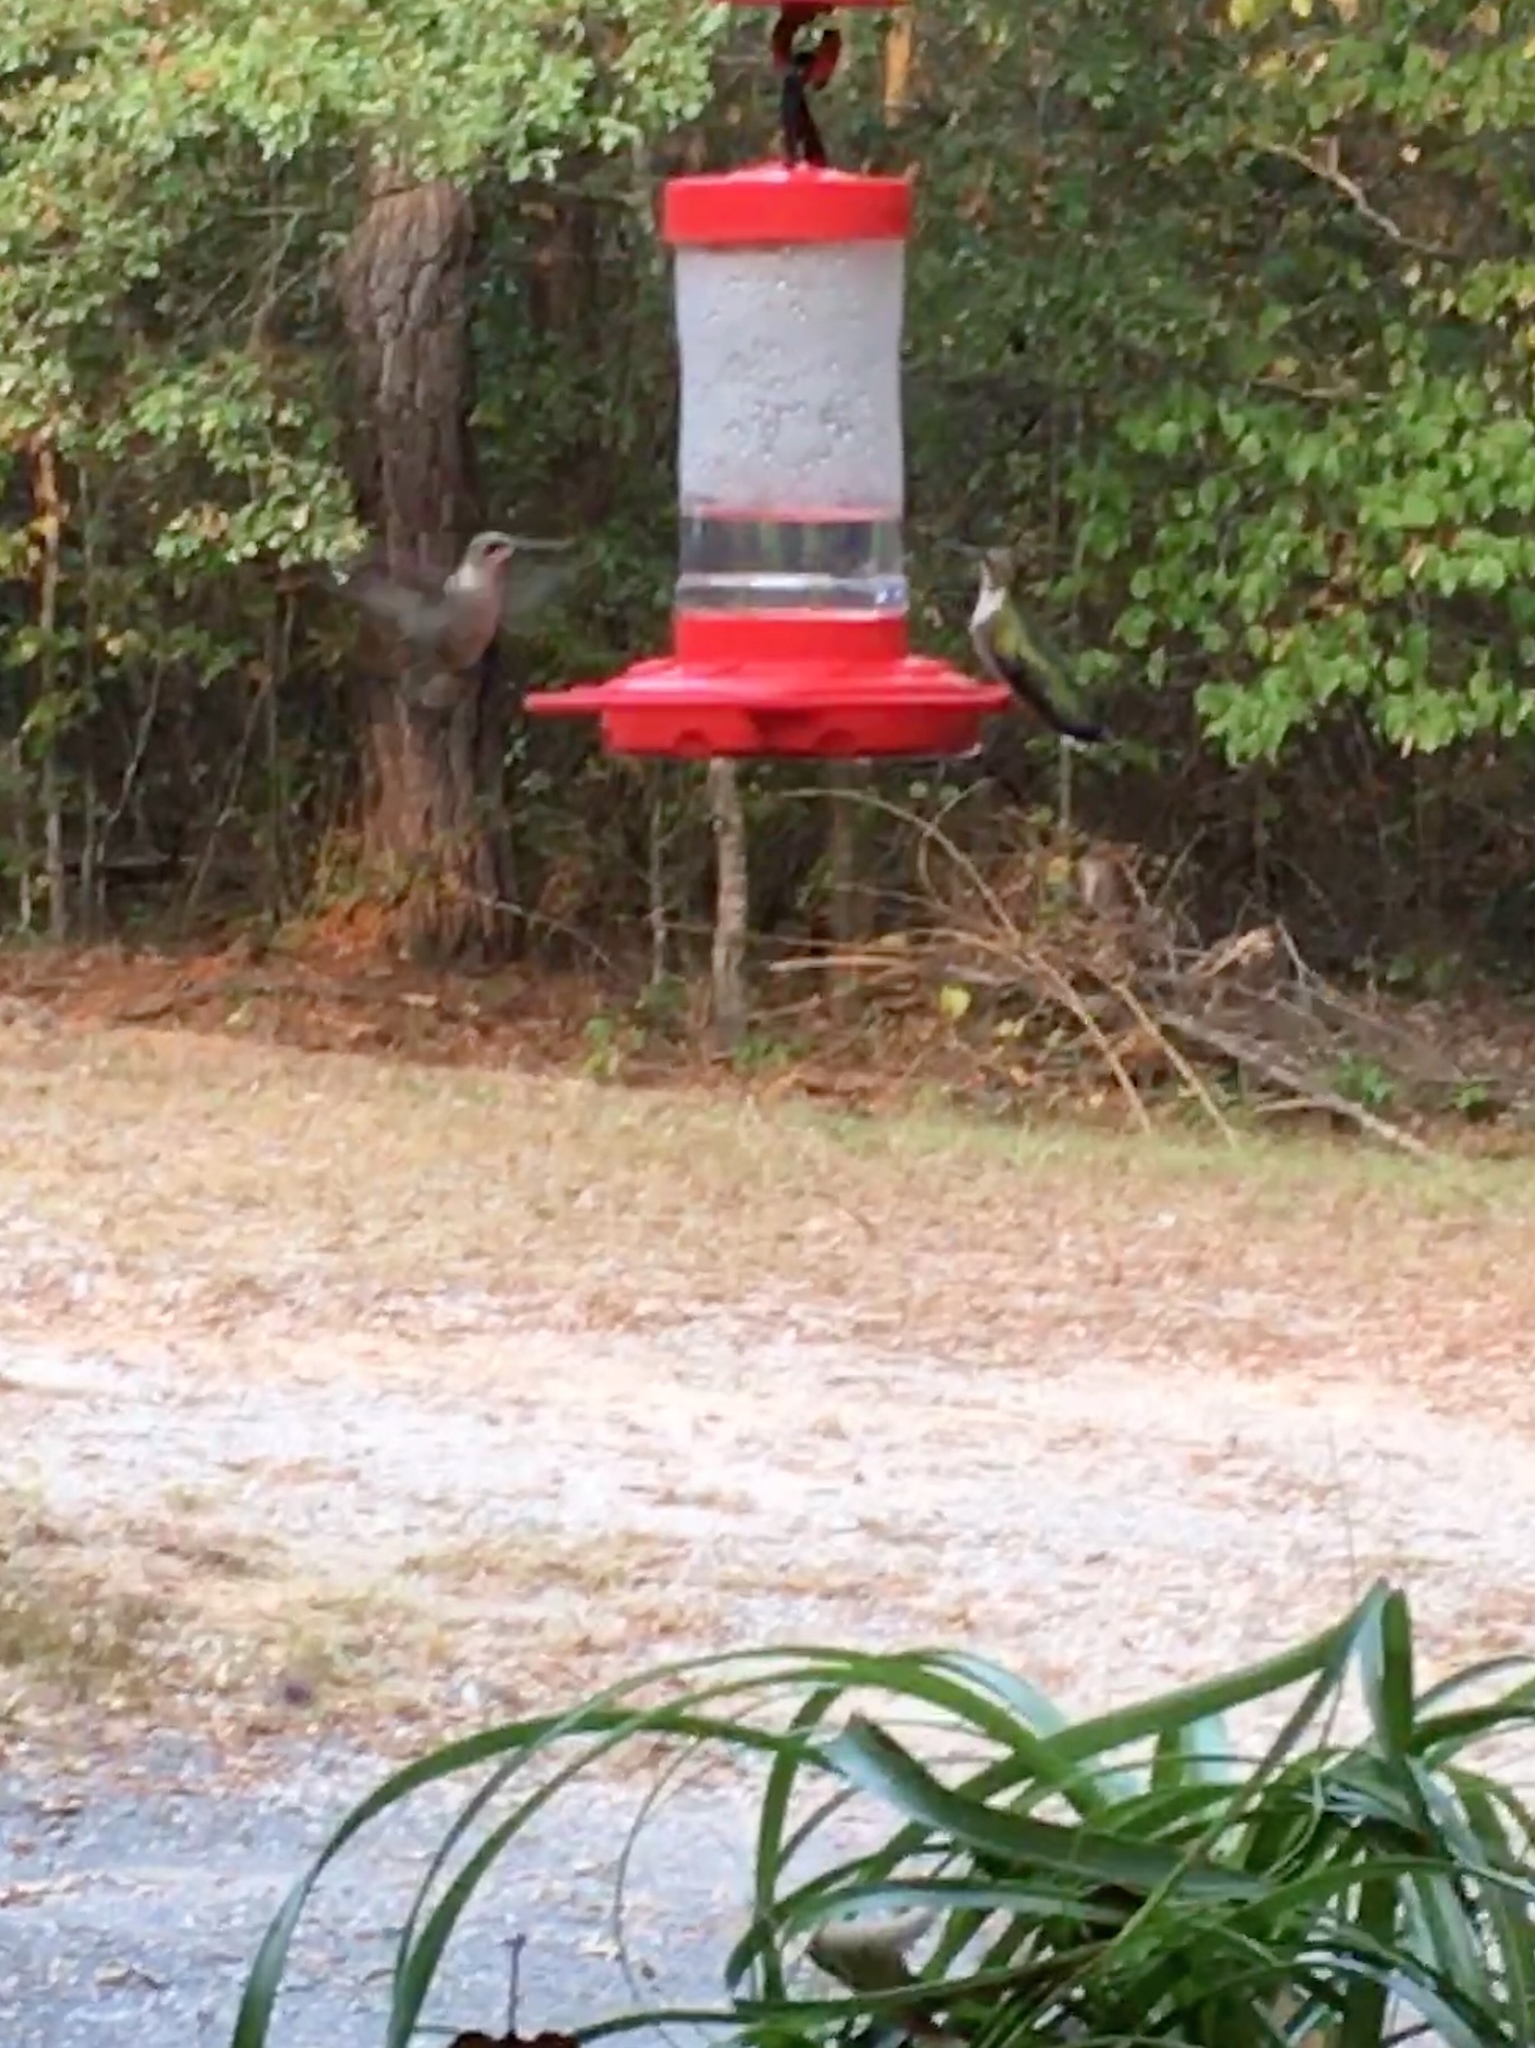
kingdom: Animalia
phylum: Chordata
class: Aves
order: Apodiformes
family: Trochilidae
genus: Archilochus
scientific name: Archilochus colubris
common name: Ruby-throated hummingbird
